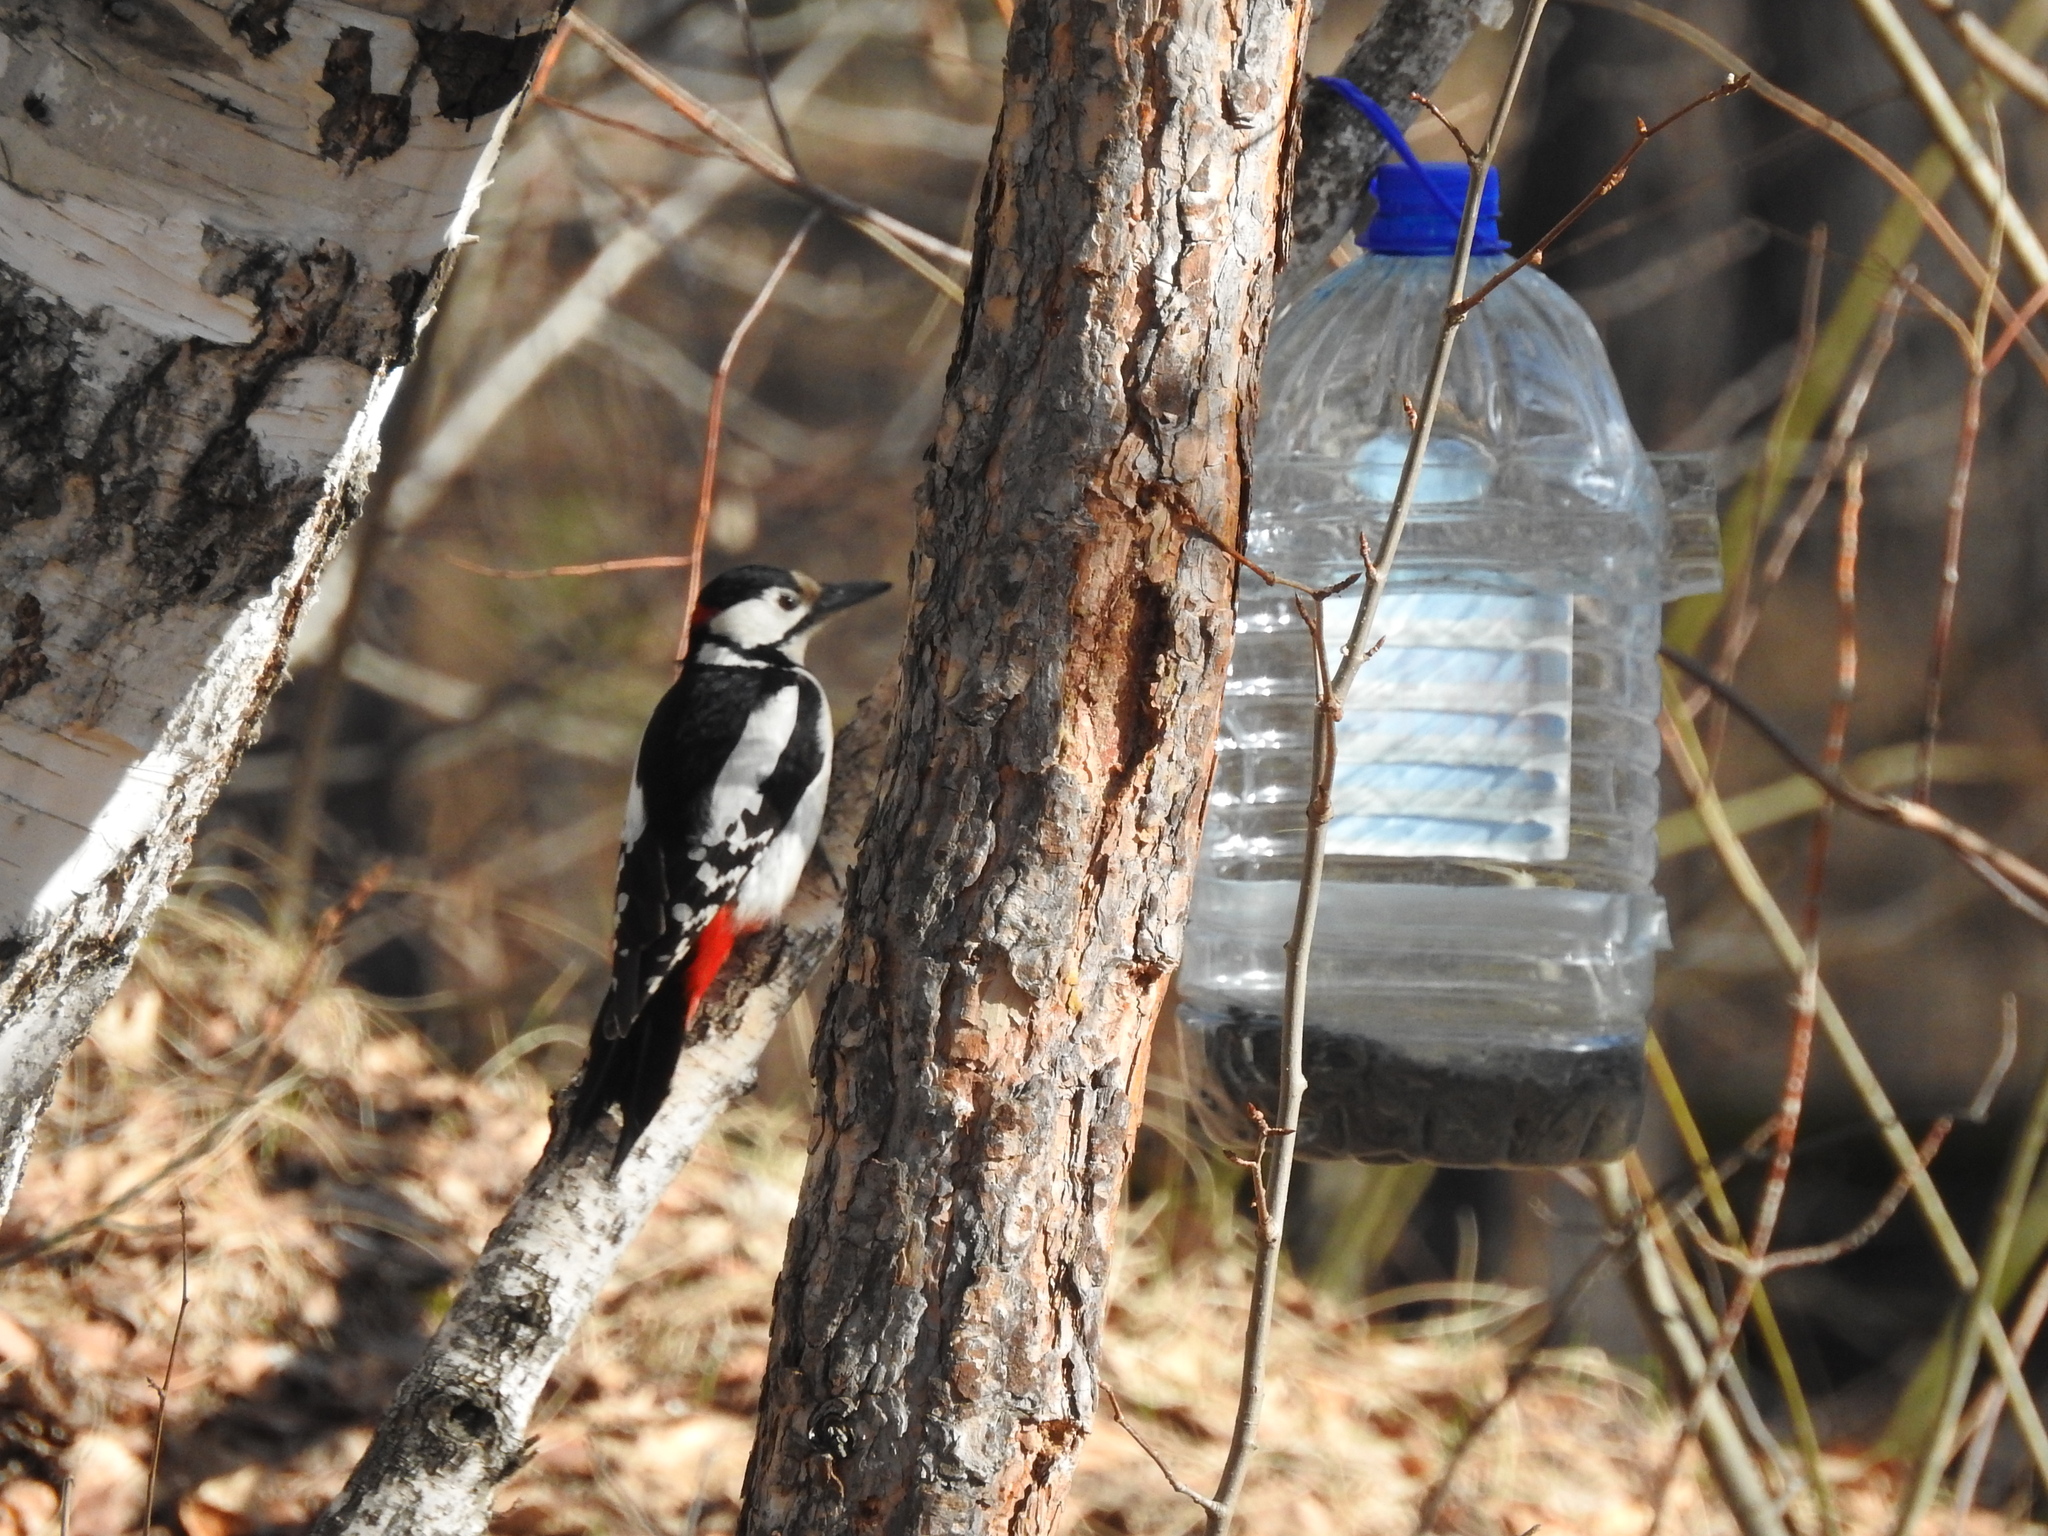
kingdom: Animalia
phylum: Chordata
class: Aves
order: Piciformes
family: Picidae
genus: Dendrocopos
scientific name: Dendrocopos major
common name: Great spotted woodpecker
